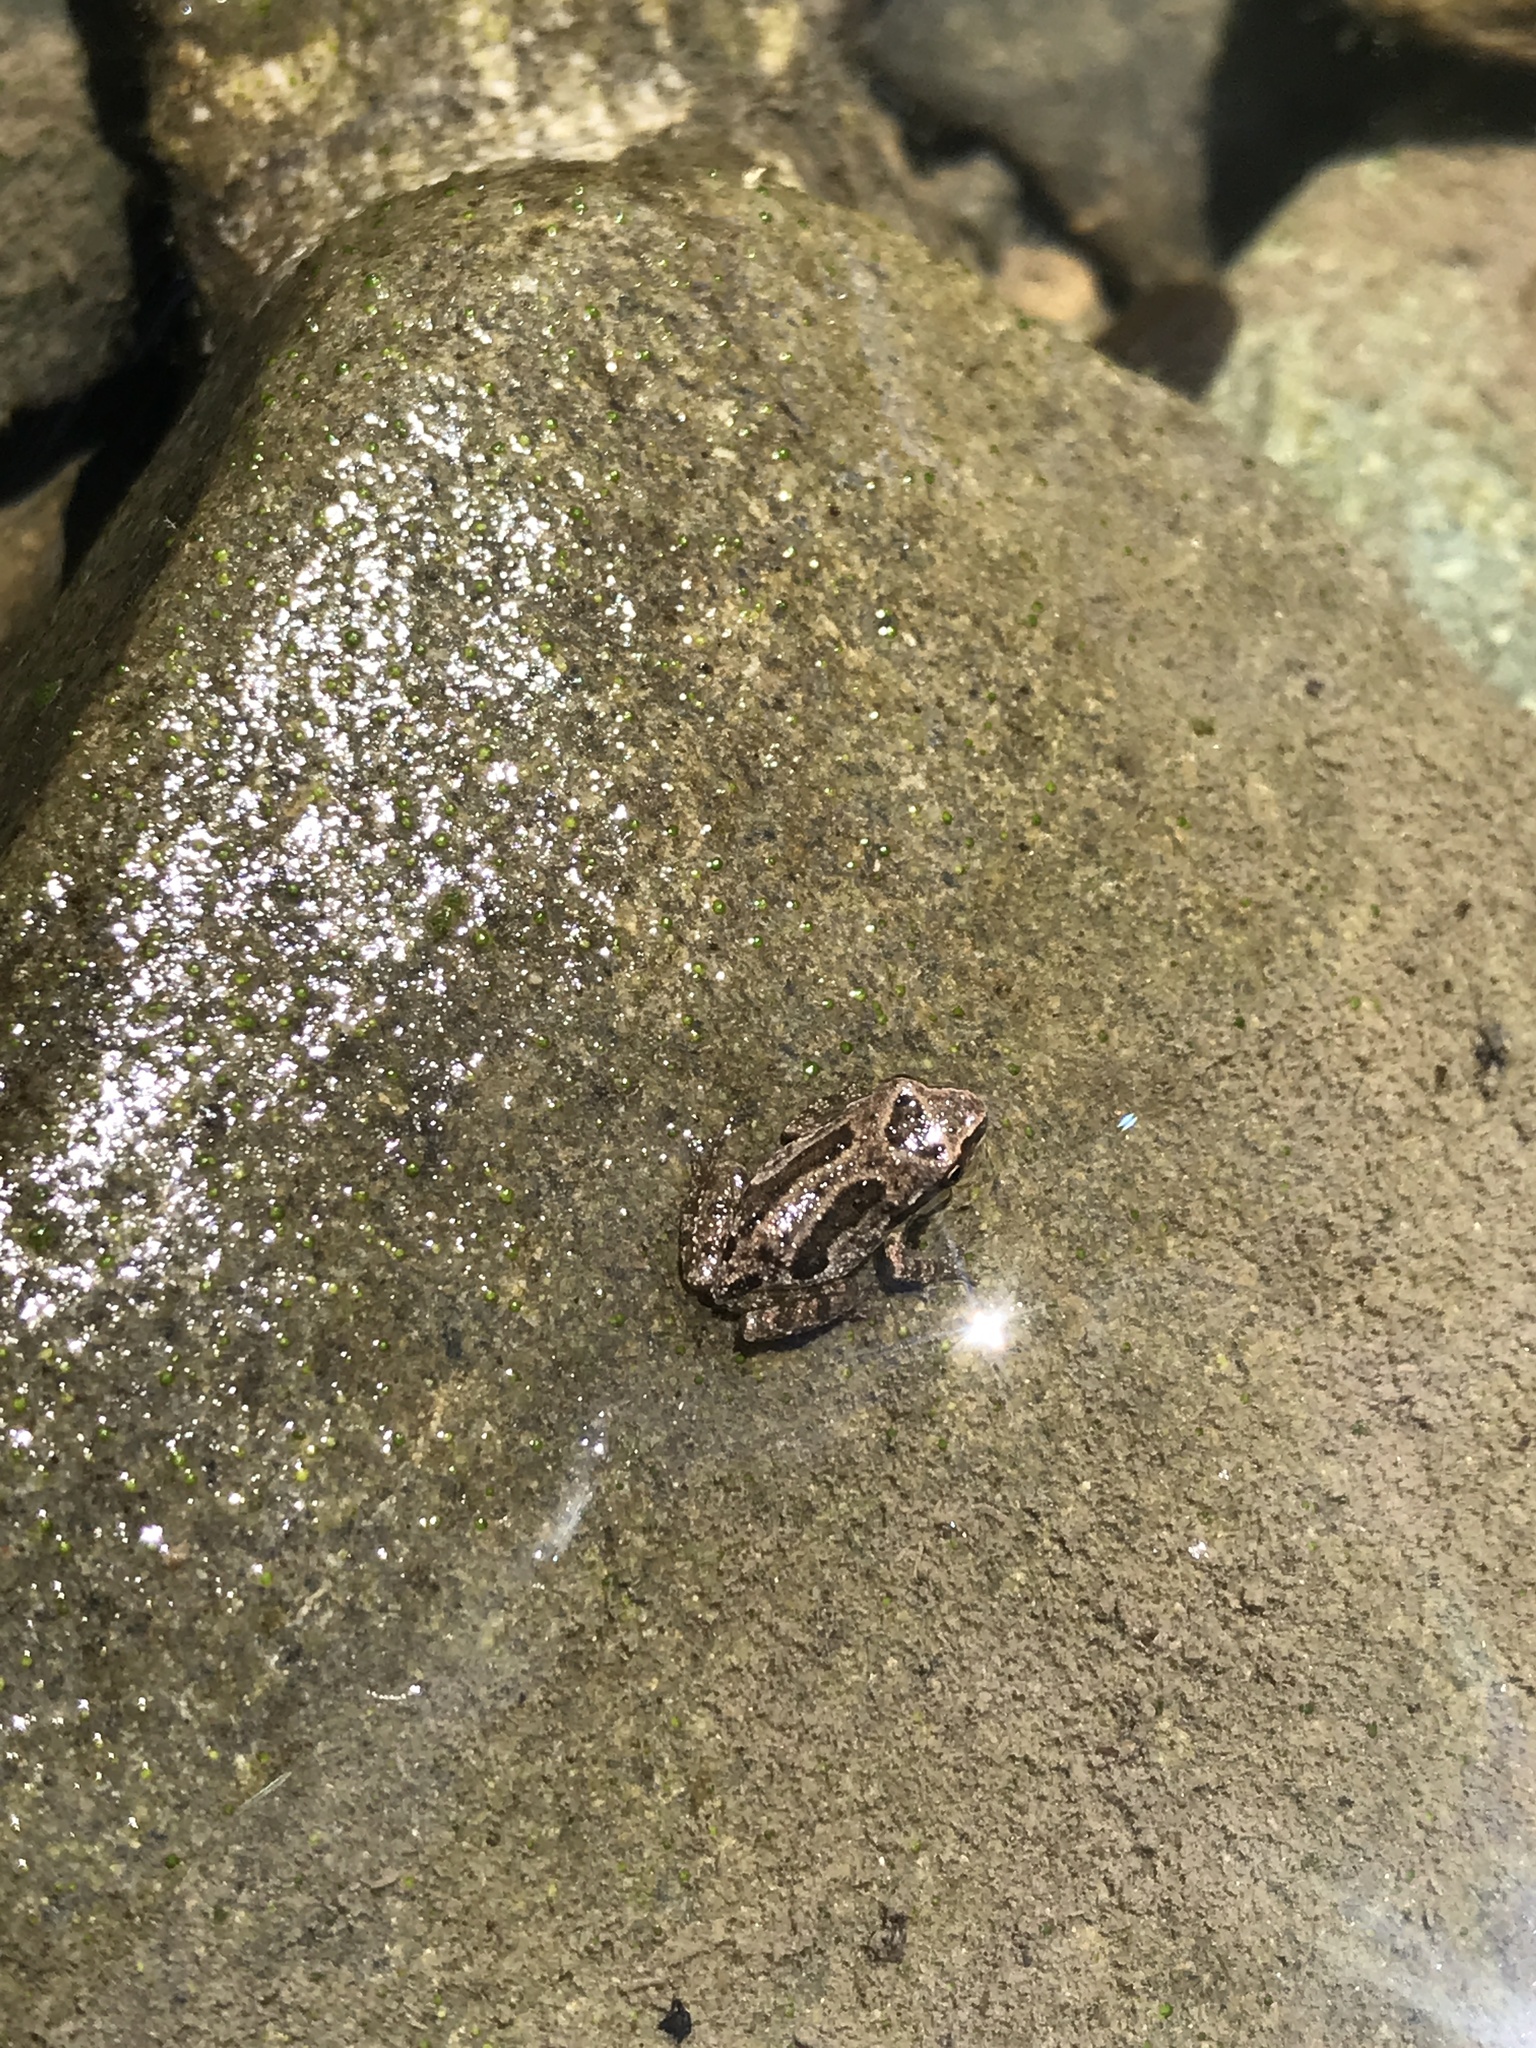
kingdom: Animalia
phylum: Chordata
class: Amphibia
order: Anura
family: Hylidae
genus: Pseudacris
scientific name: Pseudacris regilla
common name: Pacific chorus frog
